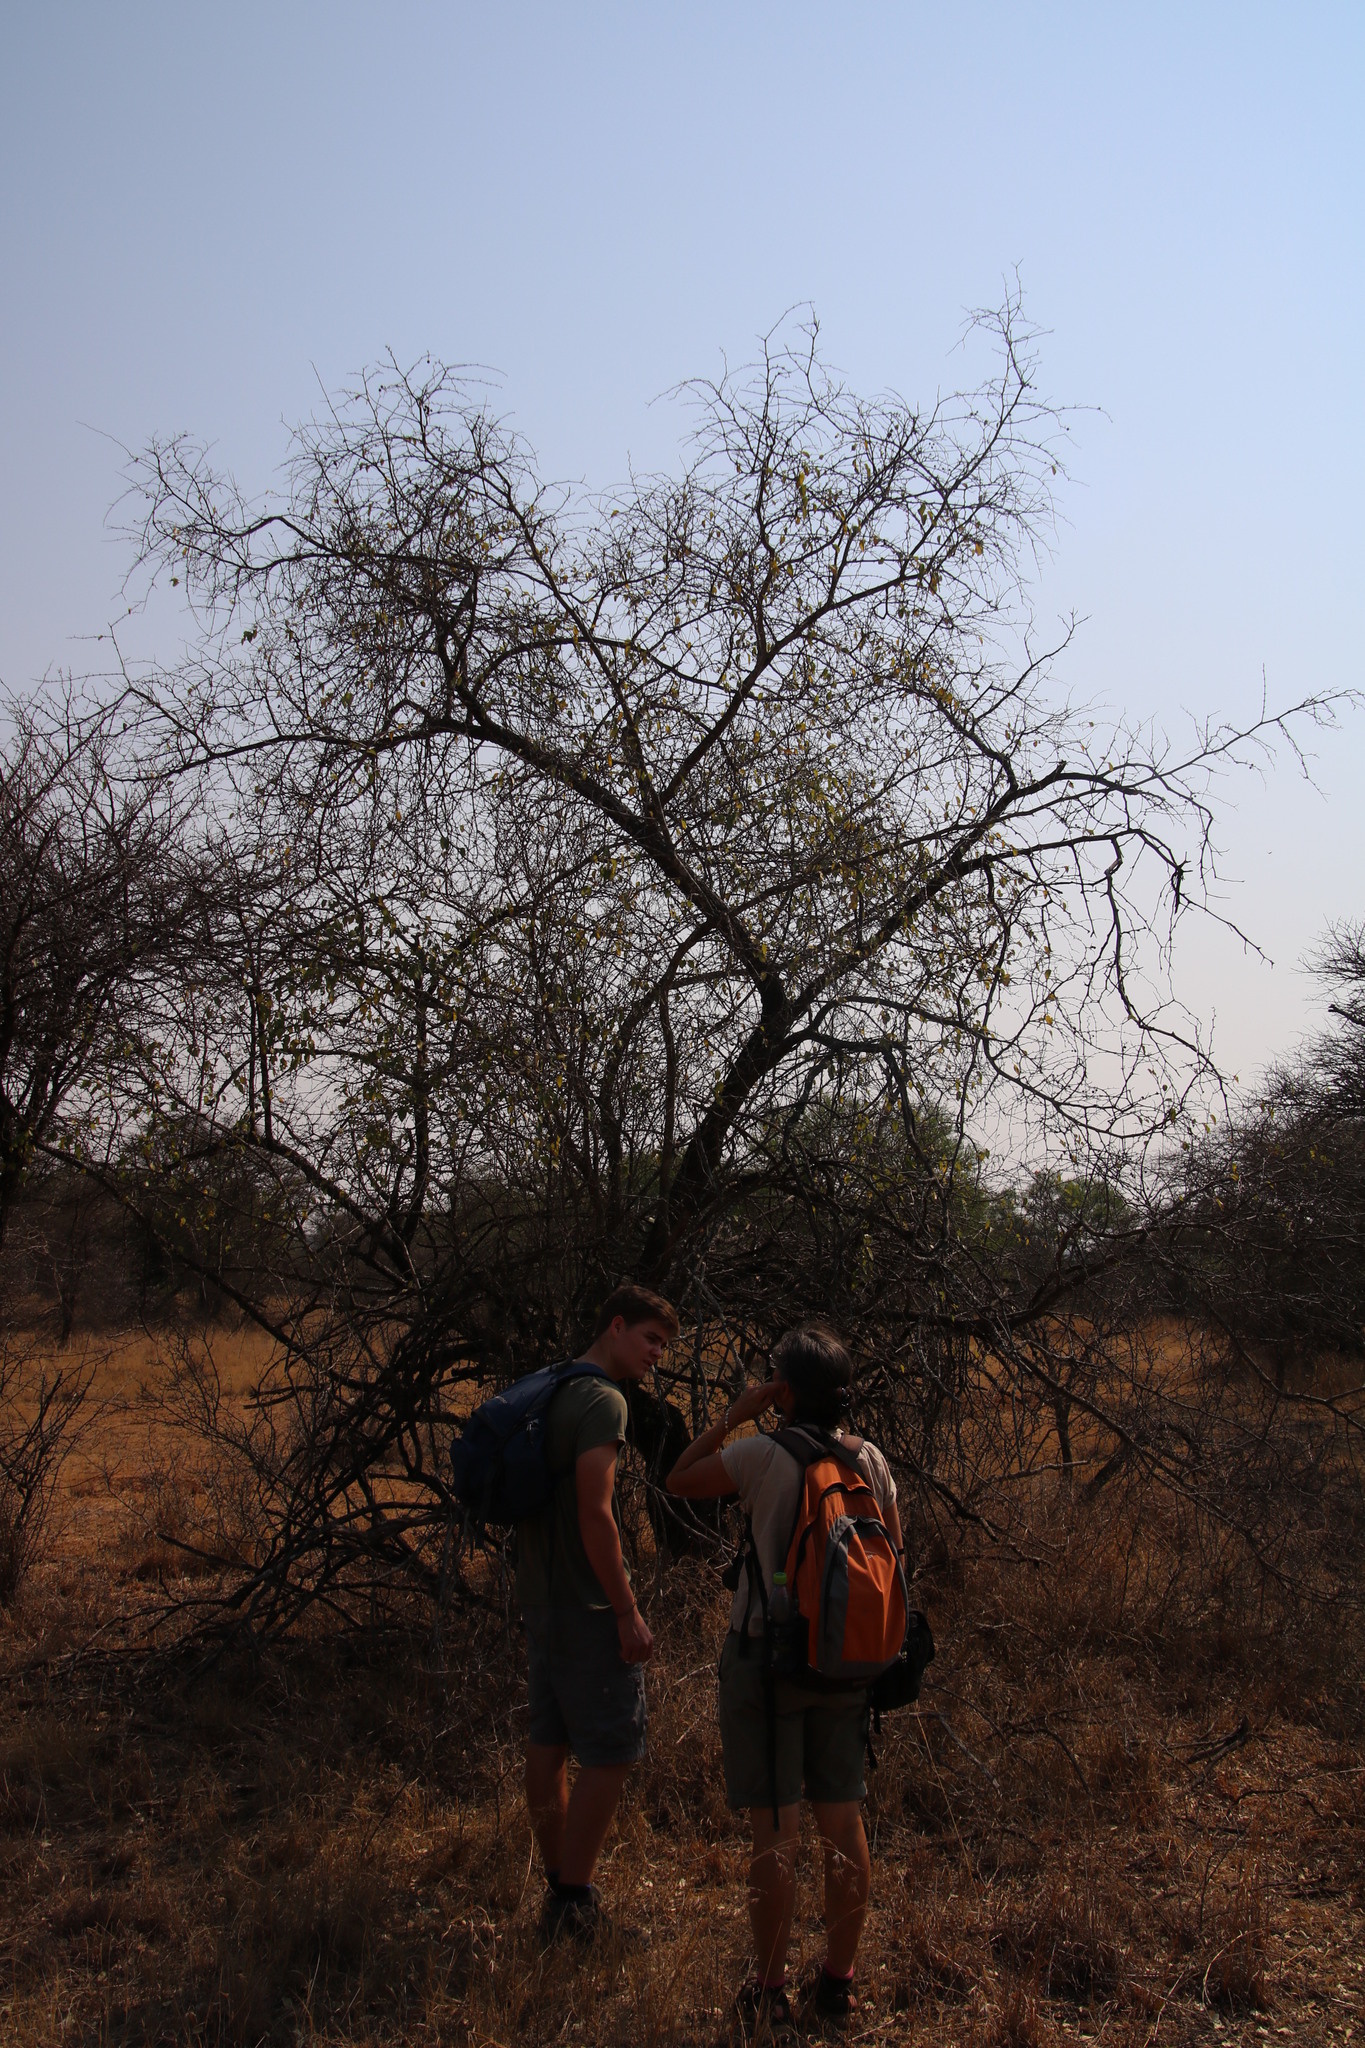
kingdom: Plantae
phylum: Tracheophyta
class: Magnoliopsida
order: Rosales
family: Rhamnaceae
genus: Ziziphus
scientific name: Ziziphus mucronata
